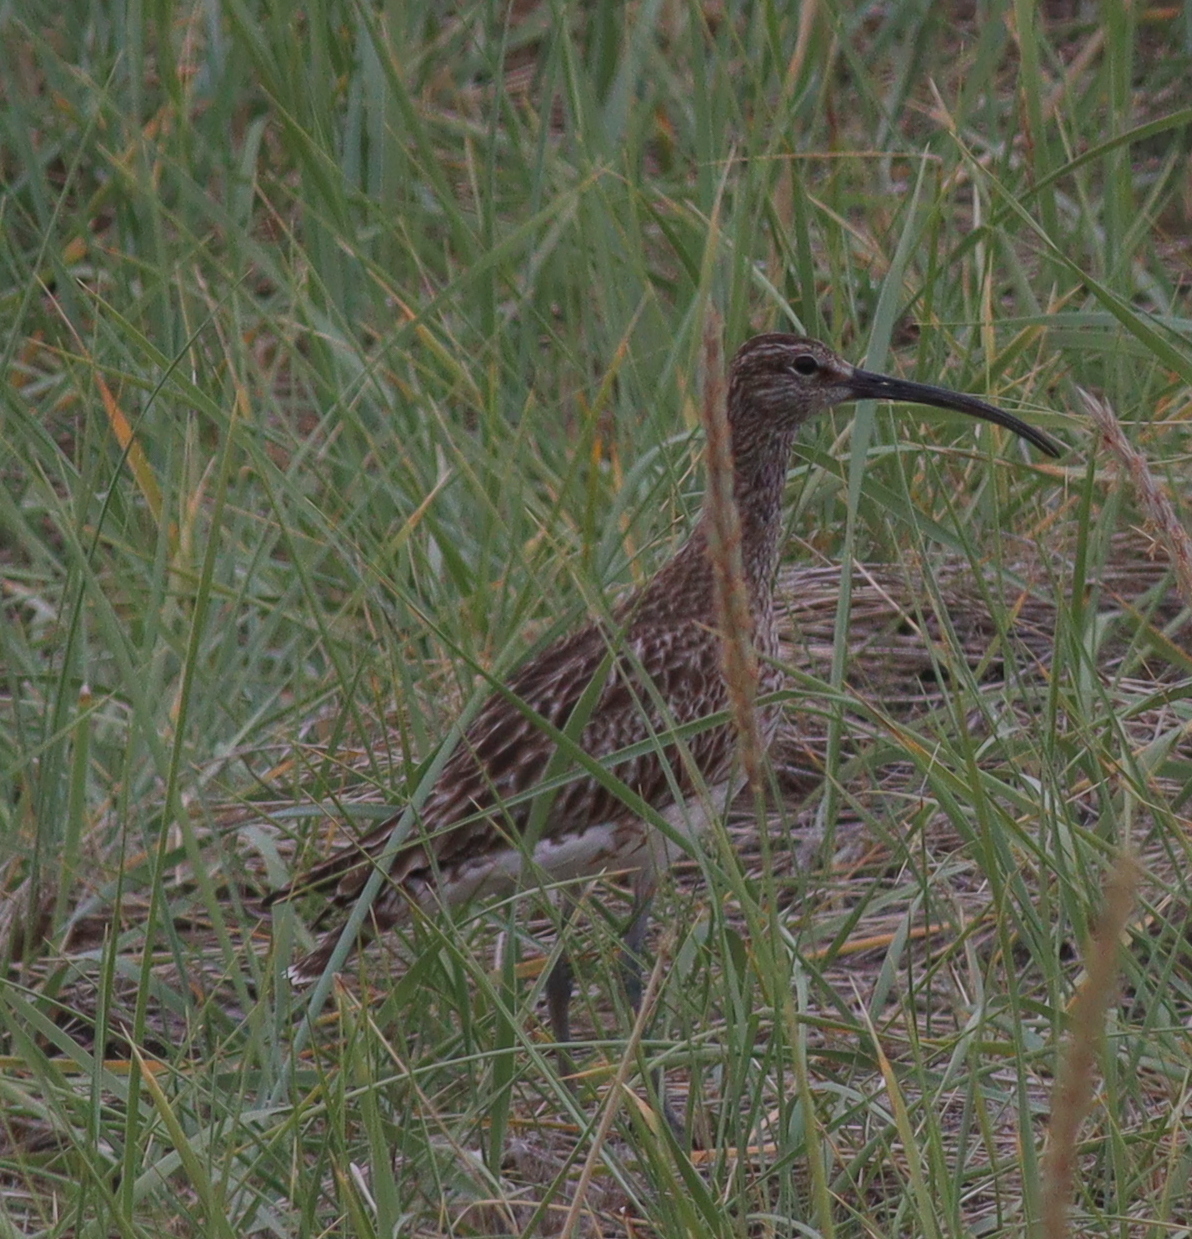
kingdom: Animalia
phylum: Chordata
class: Aves
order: Charadriiformes
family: Scolopacidae
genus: Numenius
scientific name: Numenius phaeopus
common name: Whimbrel
